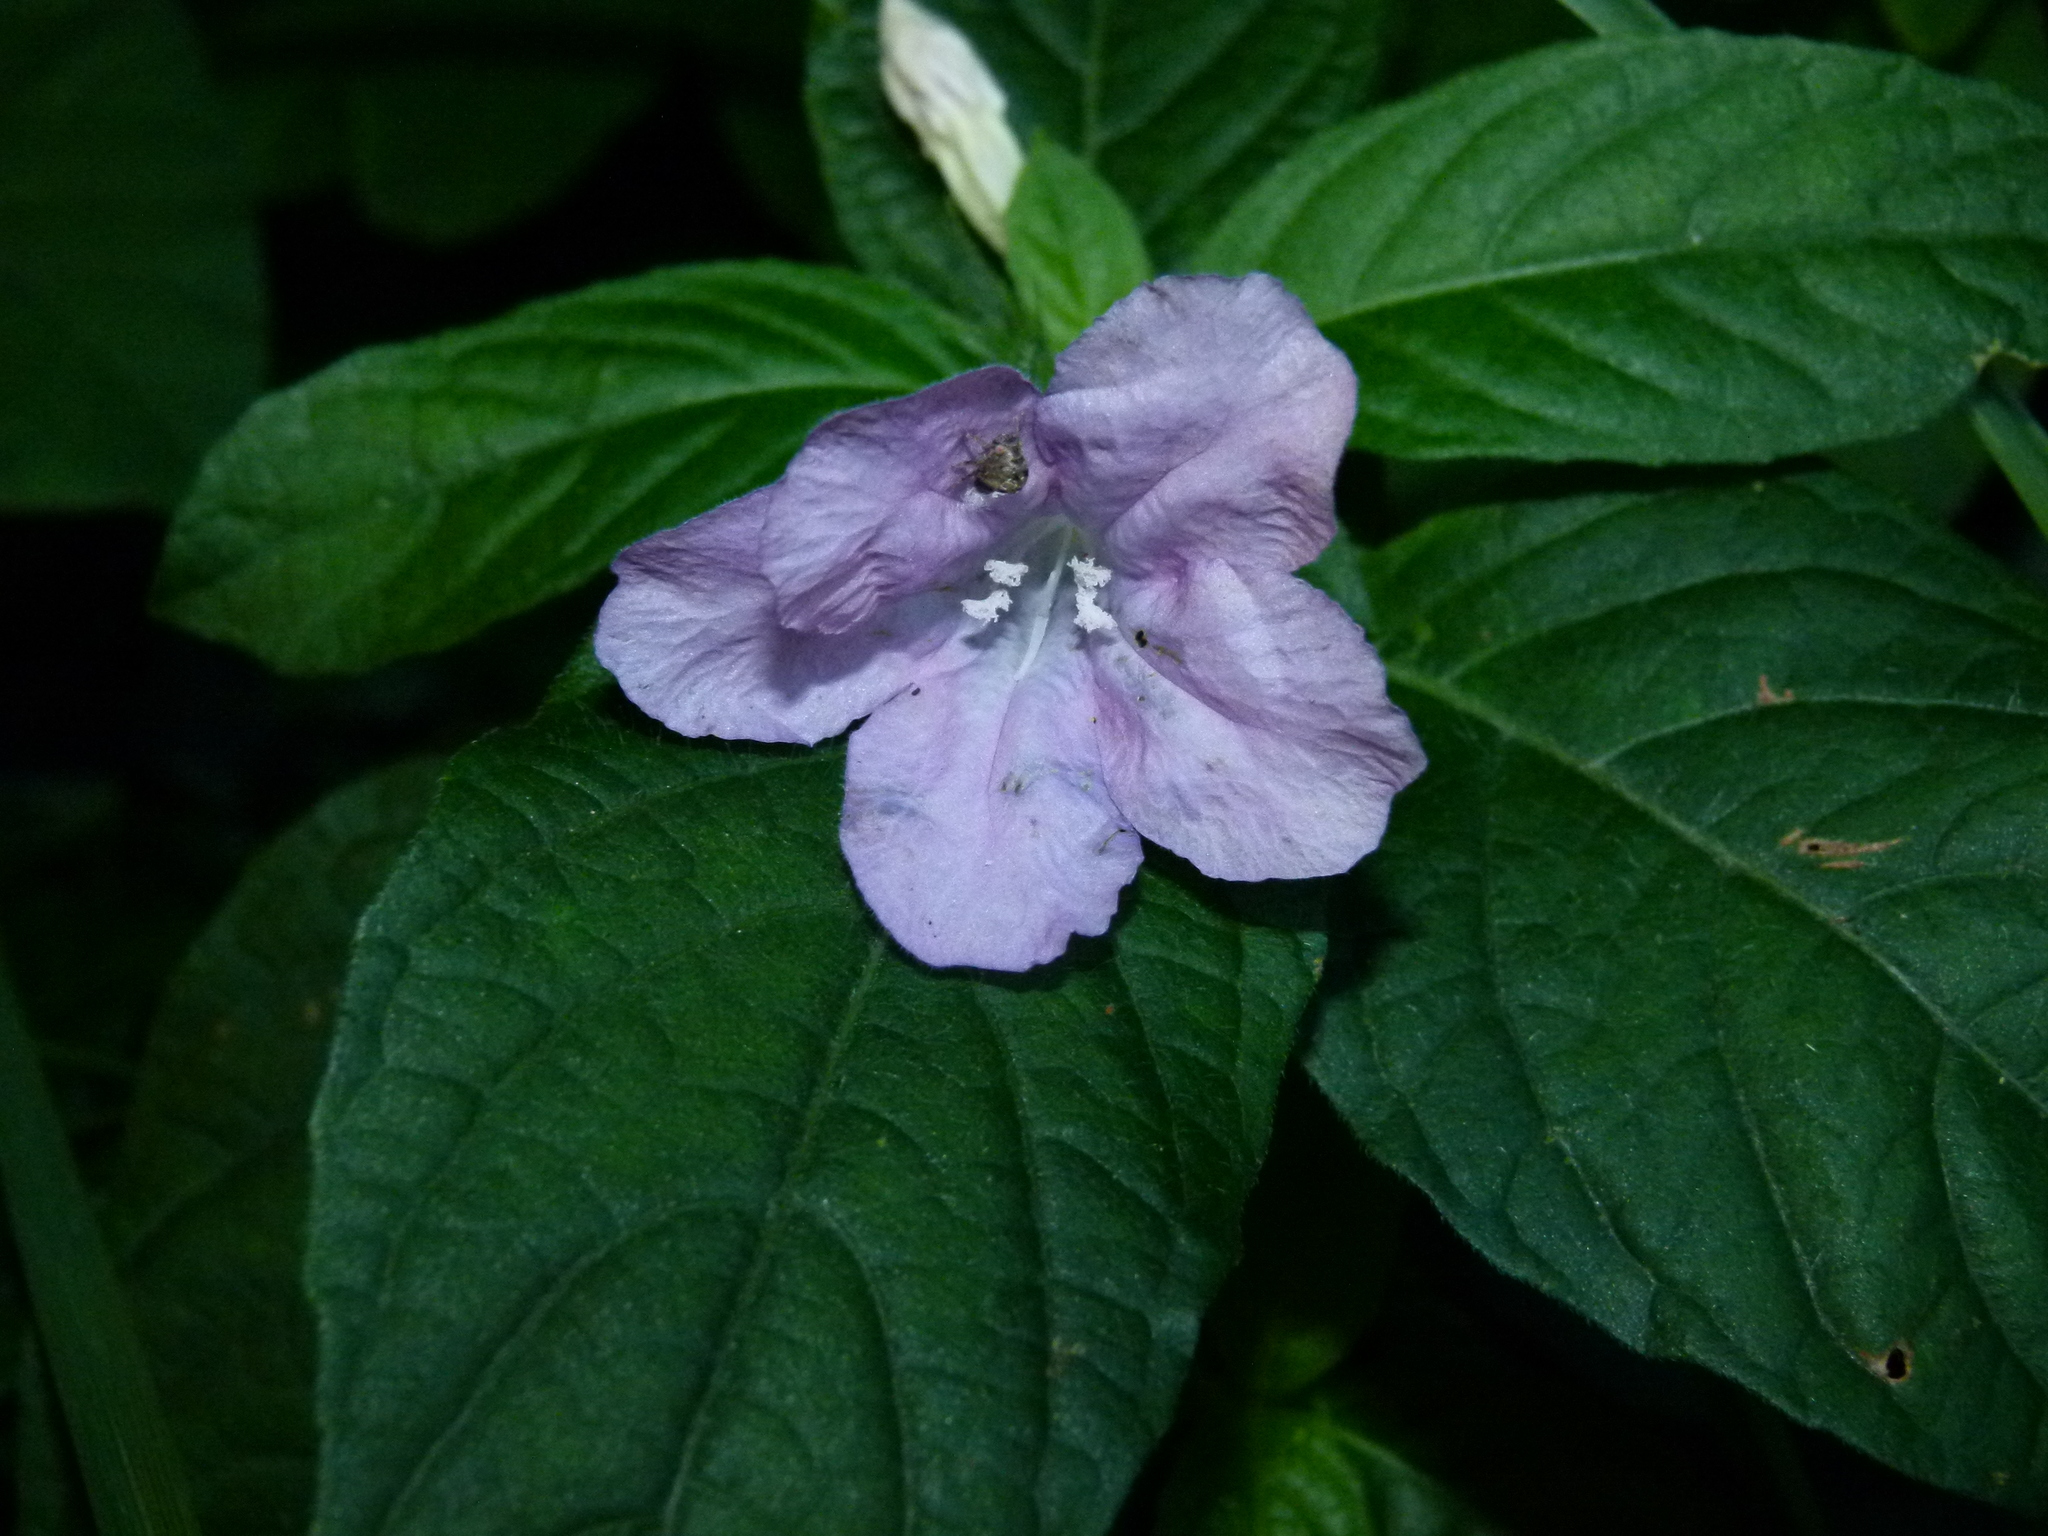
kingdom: Plantae
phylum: Tracheophyta
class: Magnoliopsida
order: Lamiales
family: Acanthaceae
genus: Ruellia
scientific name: Ruellia caroliniensis
